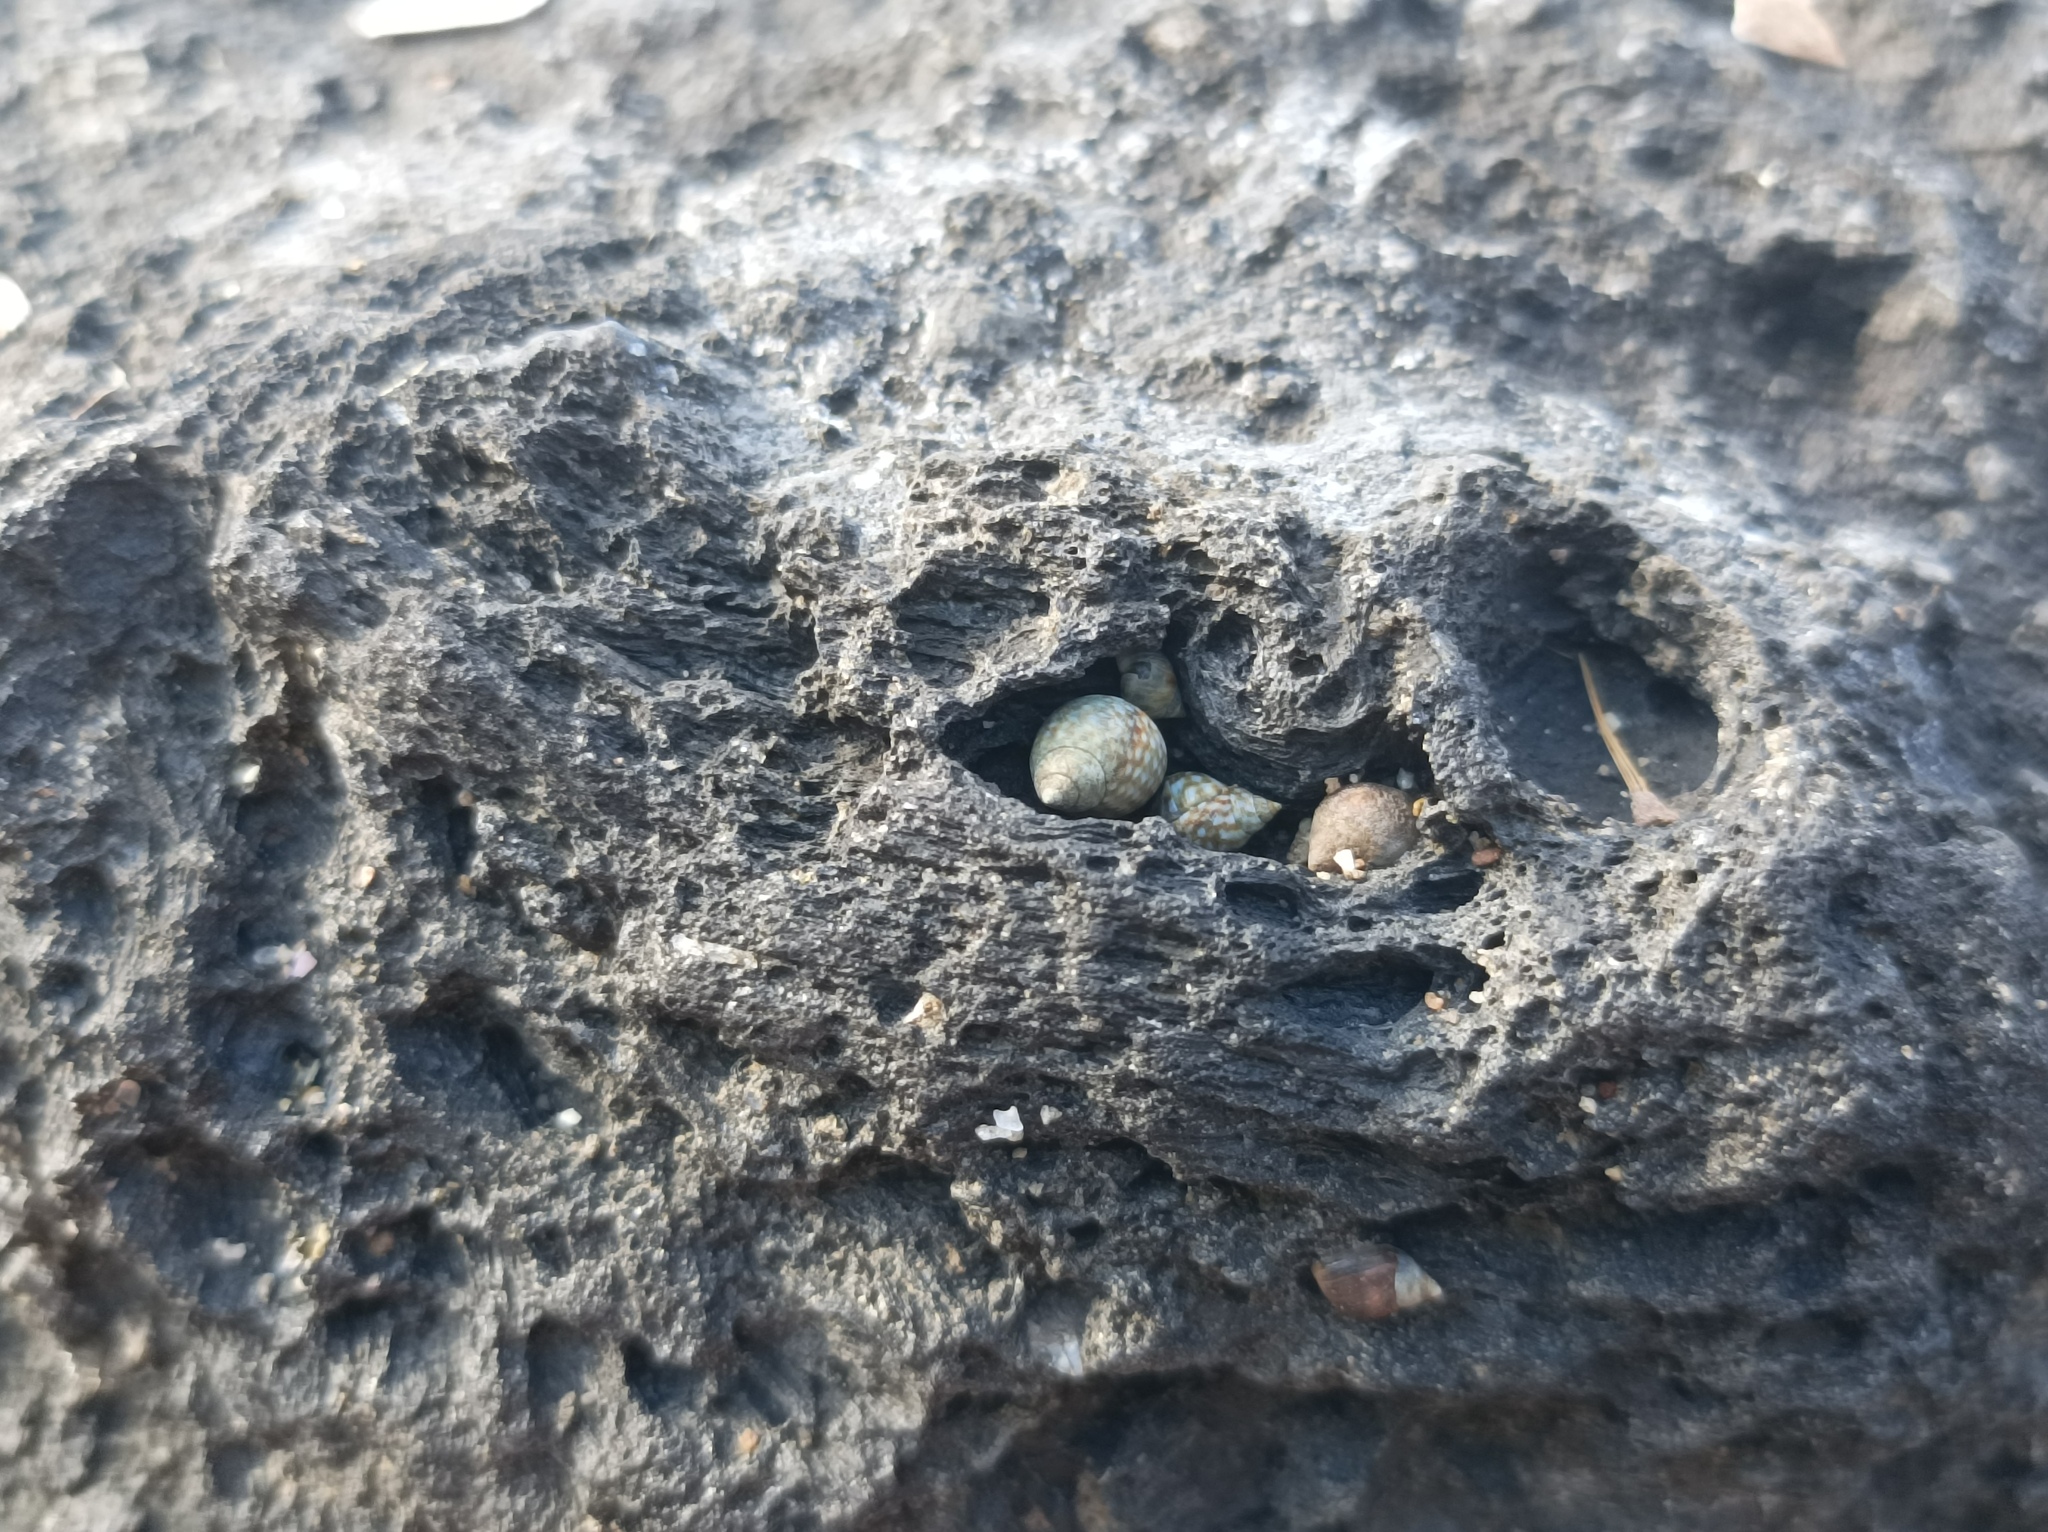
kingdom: Animalia
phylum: Mollusca
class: Gastropoda
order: Littorinimorpha
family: Littorinidae
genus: Echinolittorina
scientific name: Echinolittorina punctata
